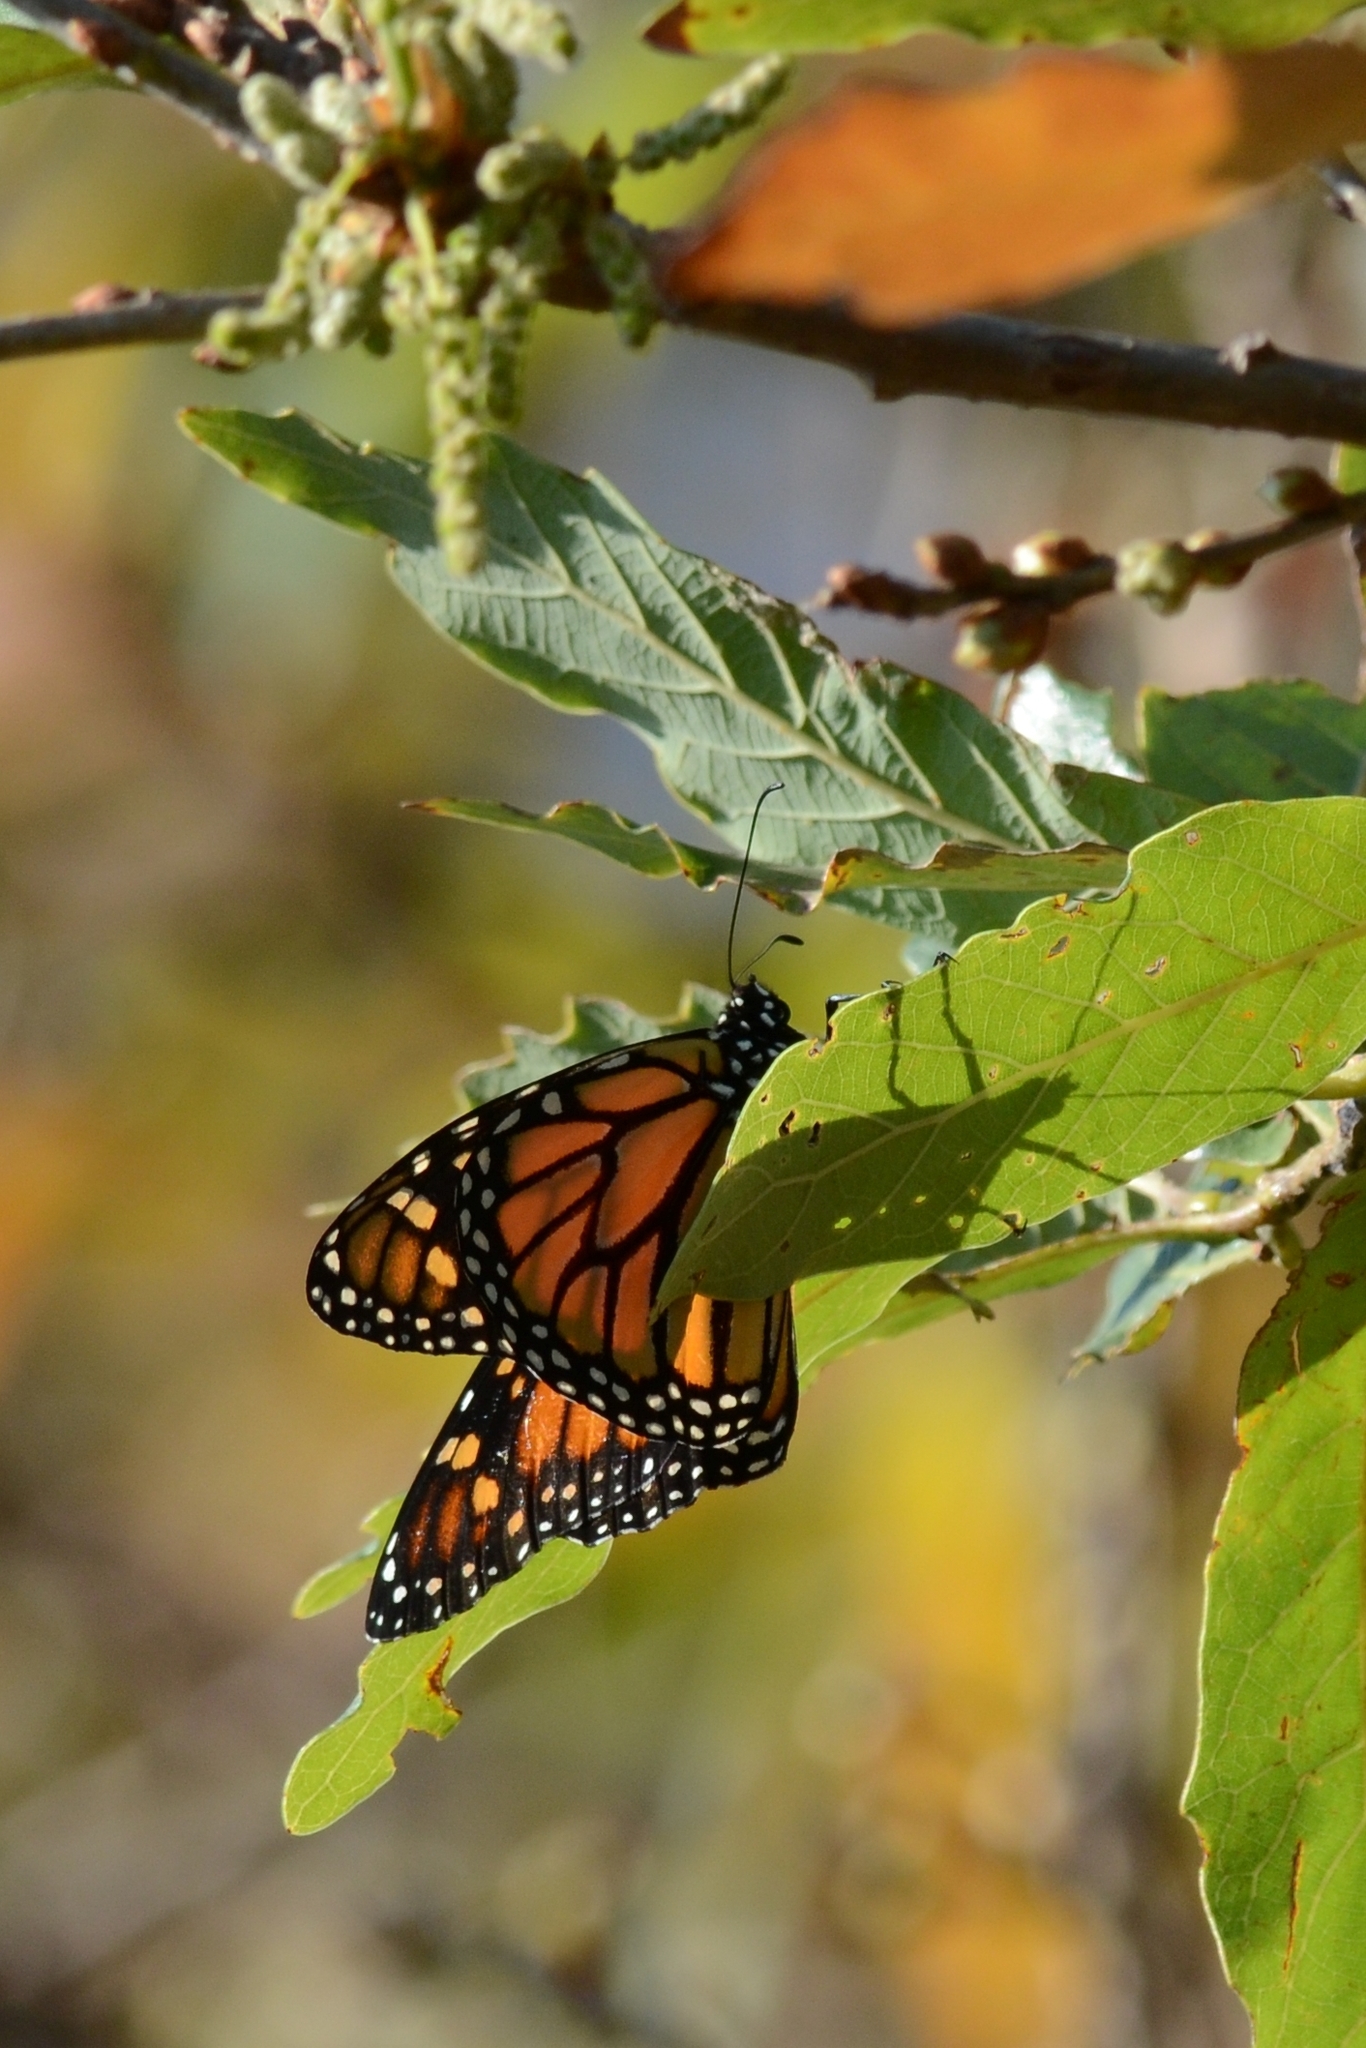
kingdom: Animalia
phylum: Arthropoda
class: Insecta
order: Lepidoptera
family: Nymphalidae
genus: Danaus
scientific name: Danaus plexippus
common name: Monarch
